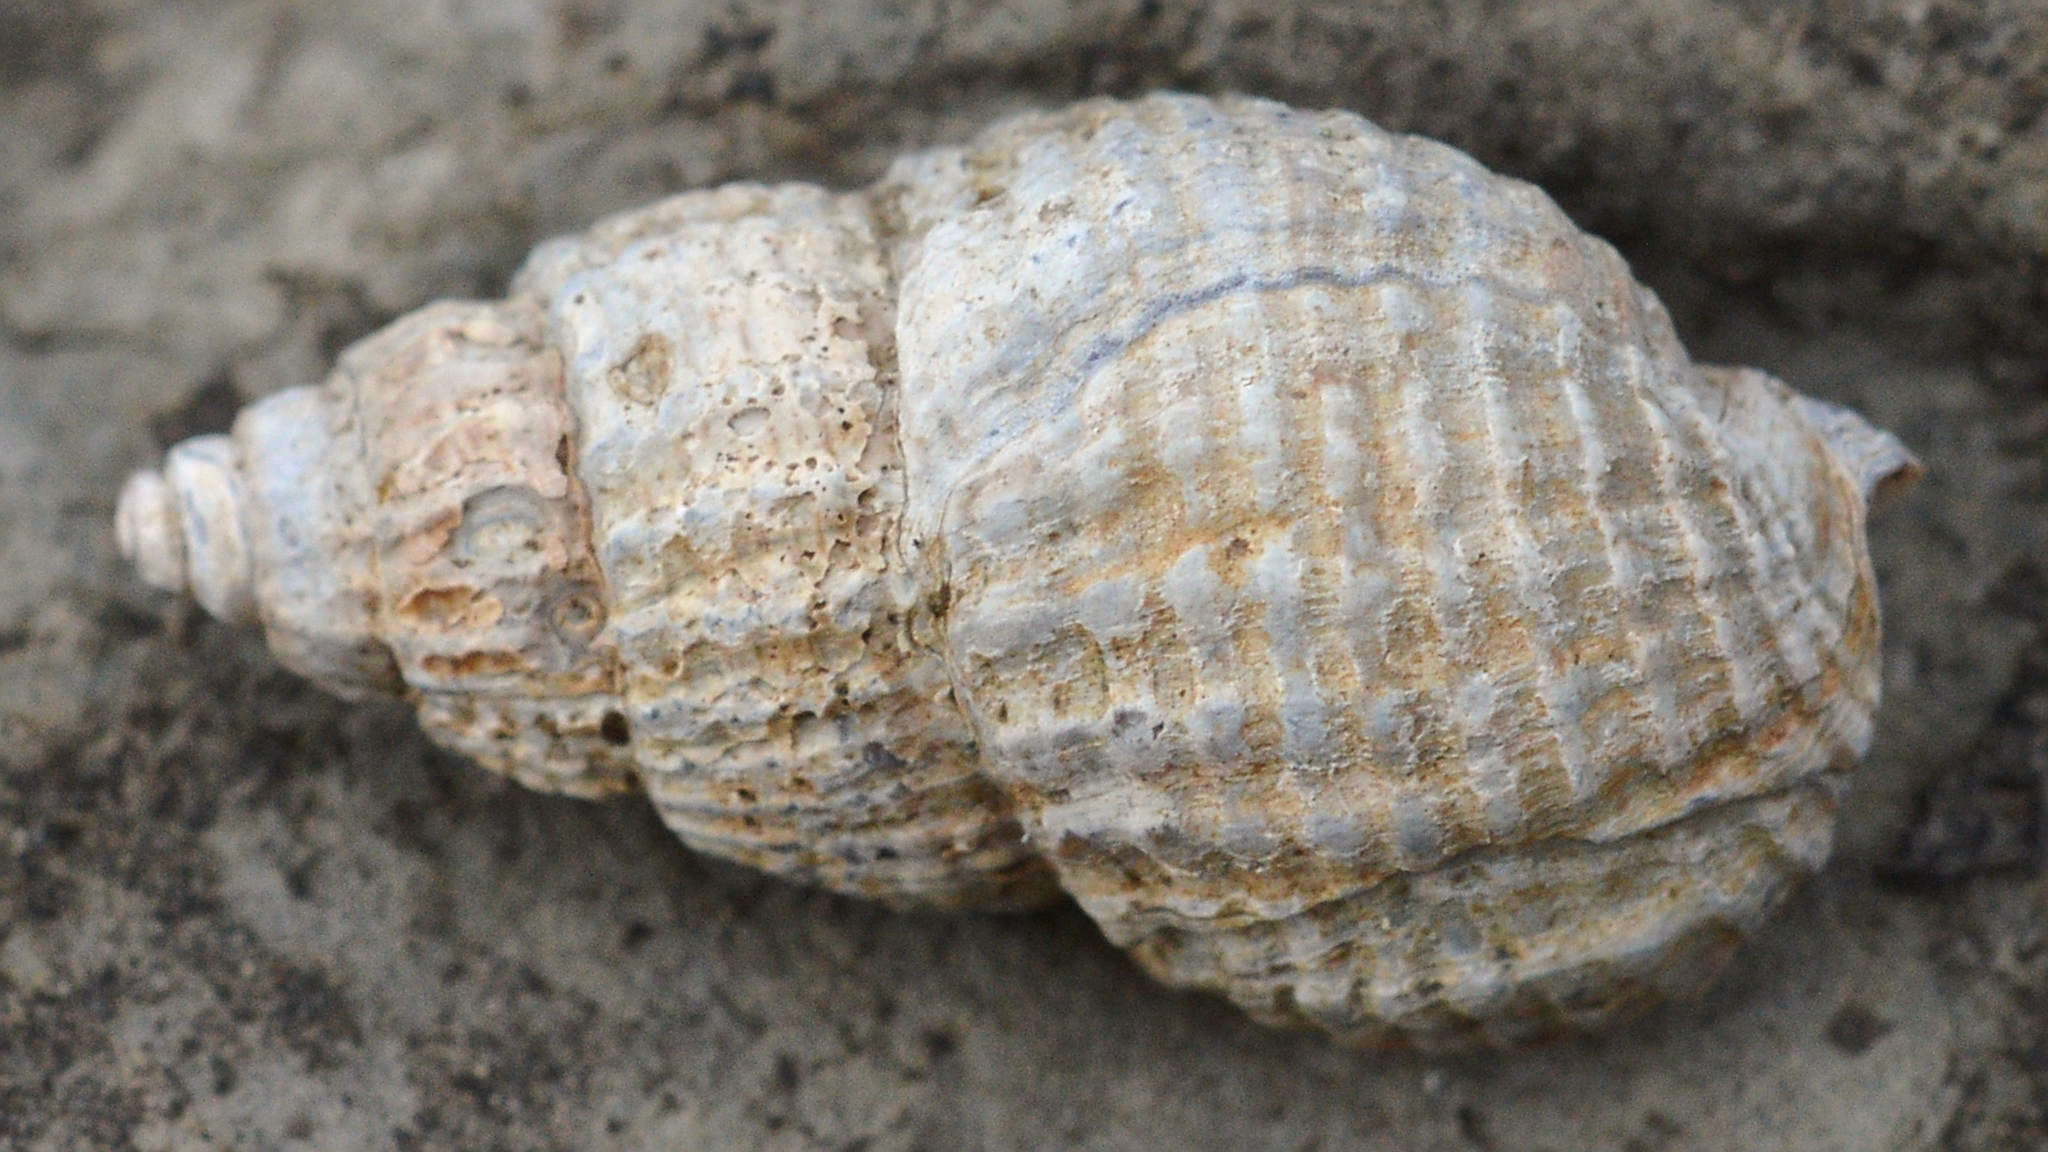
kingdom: Animalia
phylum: Mollusca
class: Gastropoda
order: Neogastropoda
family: Buccinidae
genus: Buccinum
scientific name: Buccinum undatum
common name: Common whelk
